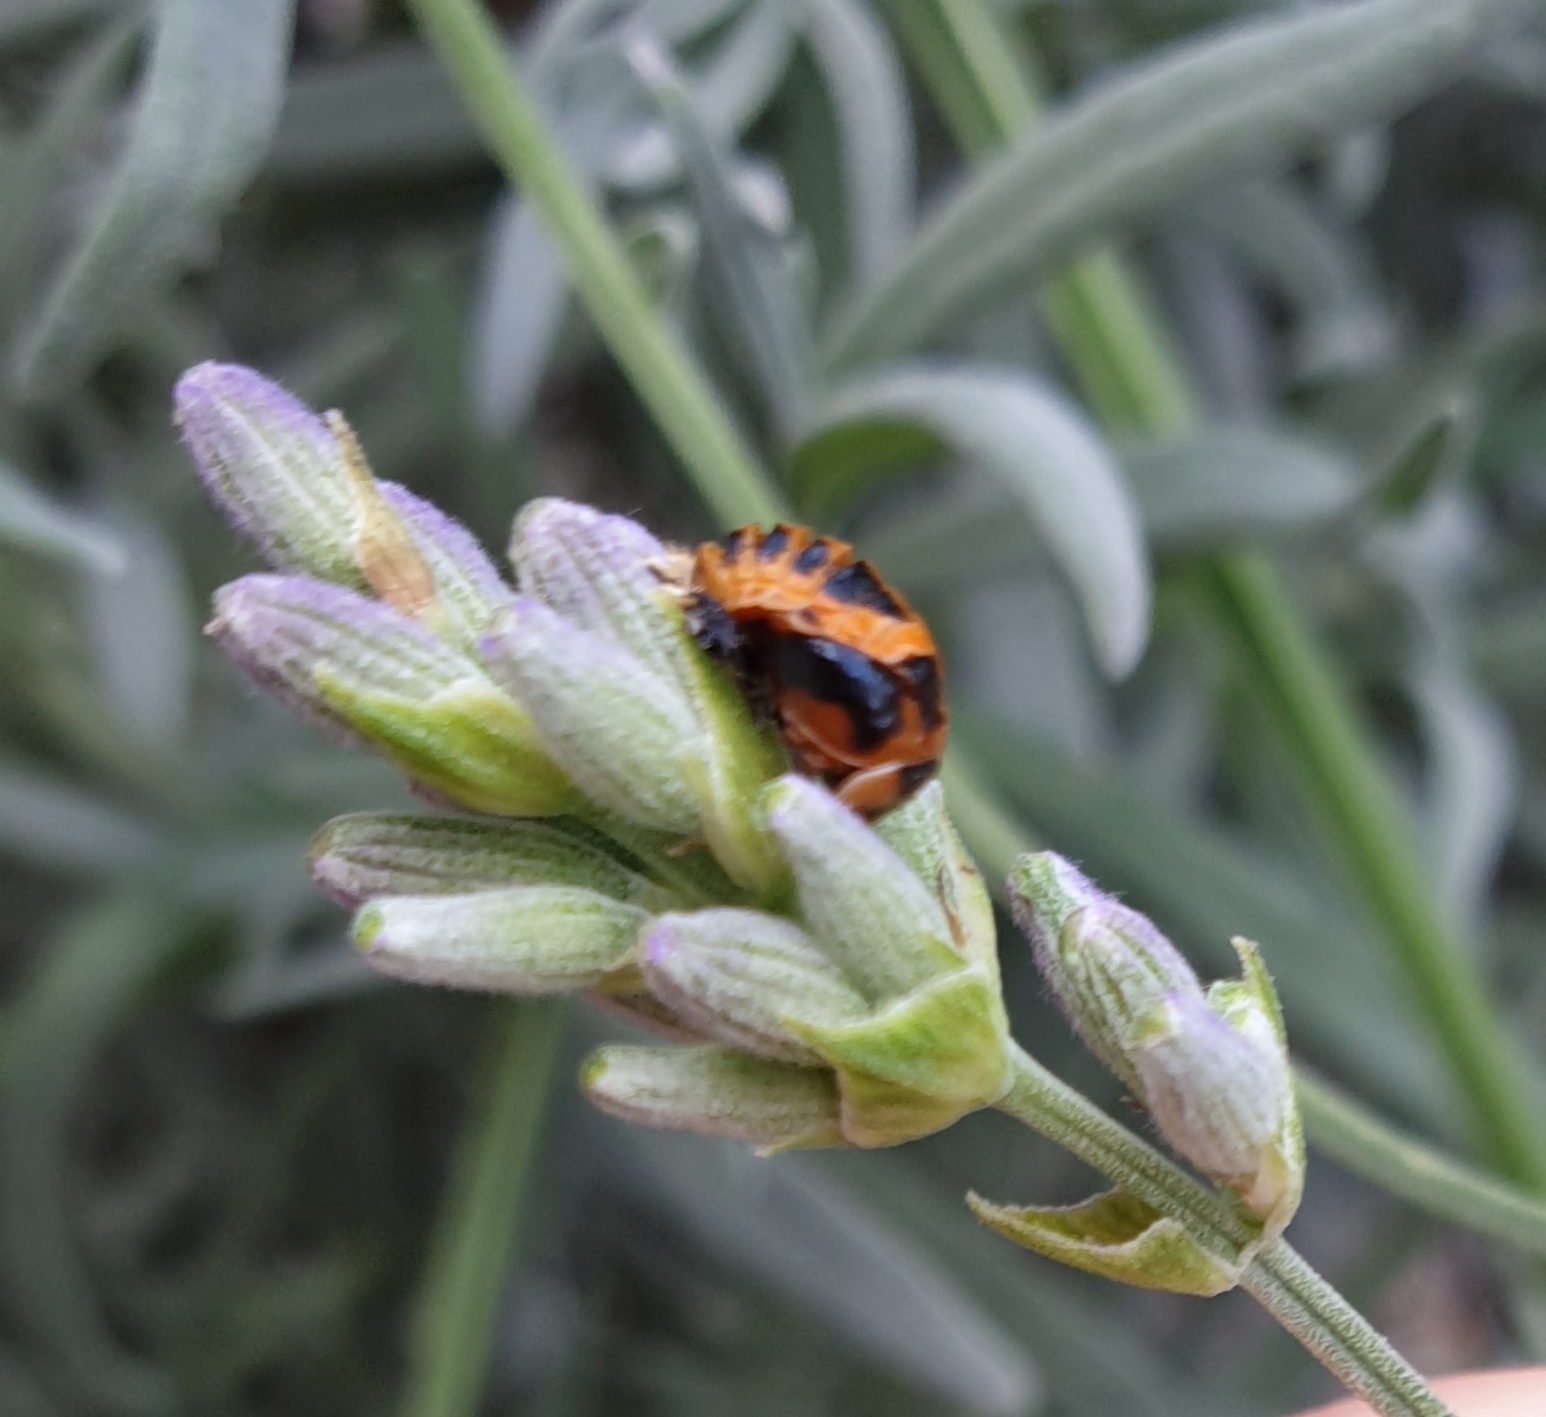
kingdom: Animalia
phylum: Arthropoda
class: Insecta
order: Coleoptera
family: Coccinellidae
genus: Harmonia
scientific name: Harmonia axyridis
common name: Harlequin ladybird
